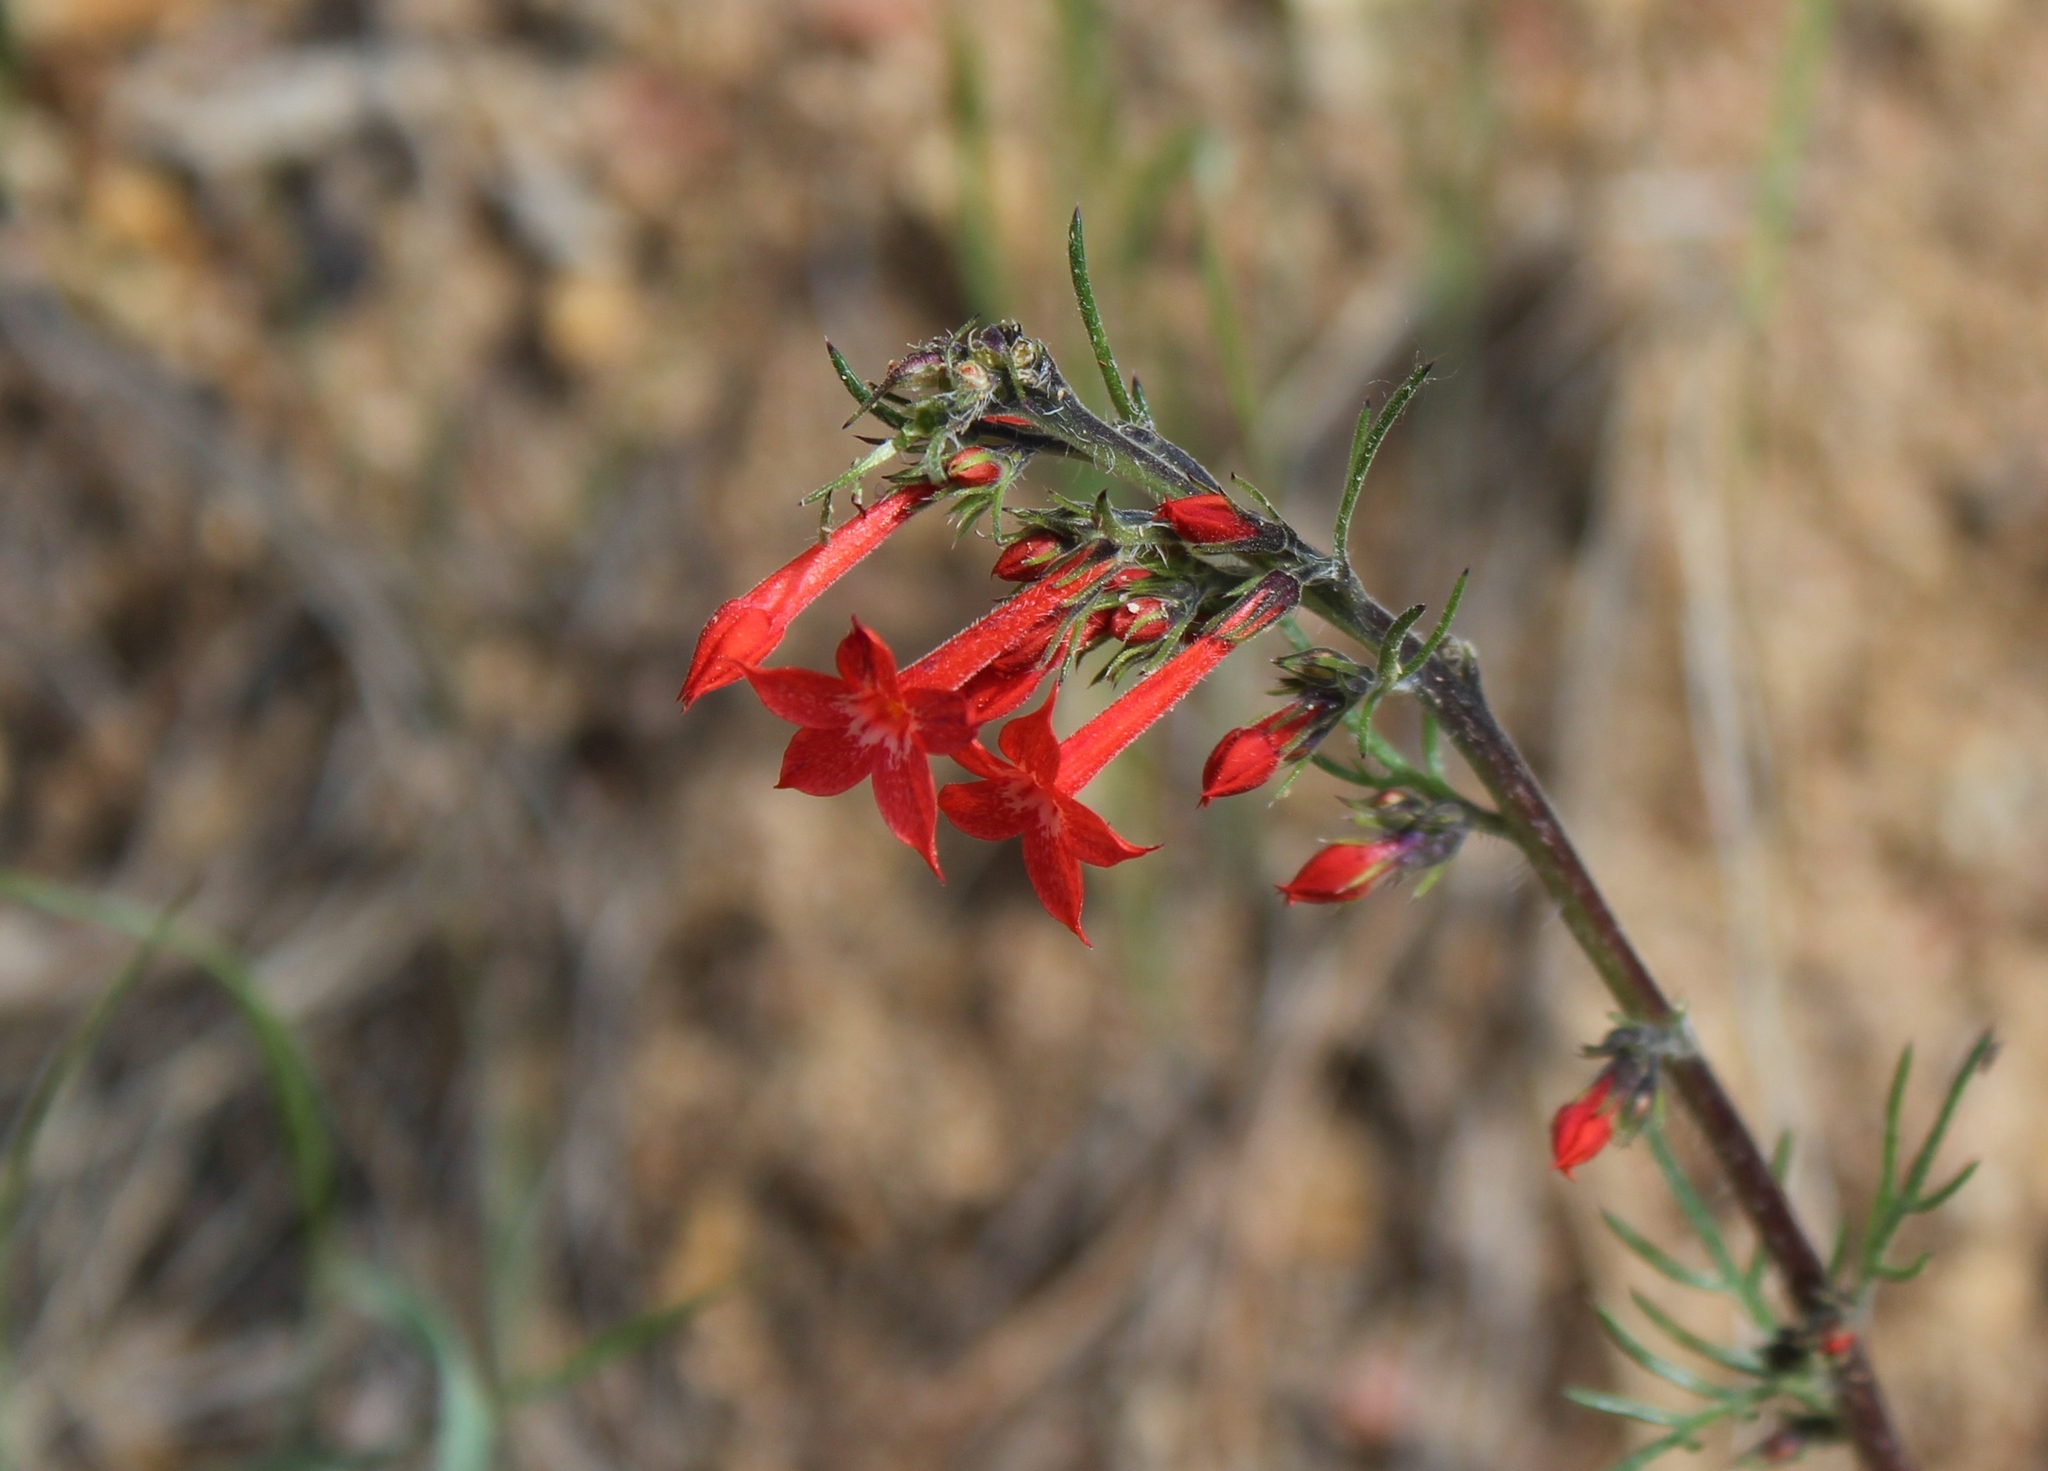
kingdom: Plantae
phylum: Tracheophyta
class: Magnoliopsida
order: Ericales
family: Polemoniaceae
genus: Ipomopsis
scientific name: Ipomopsis aggregata
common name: Scarlet gilia
